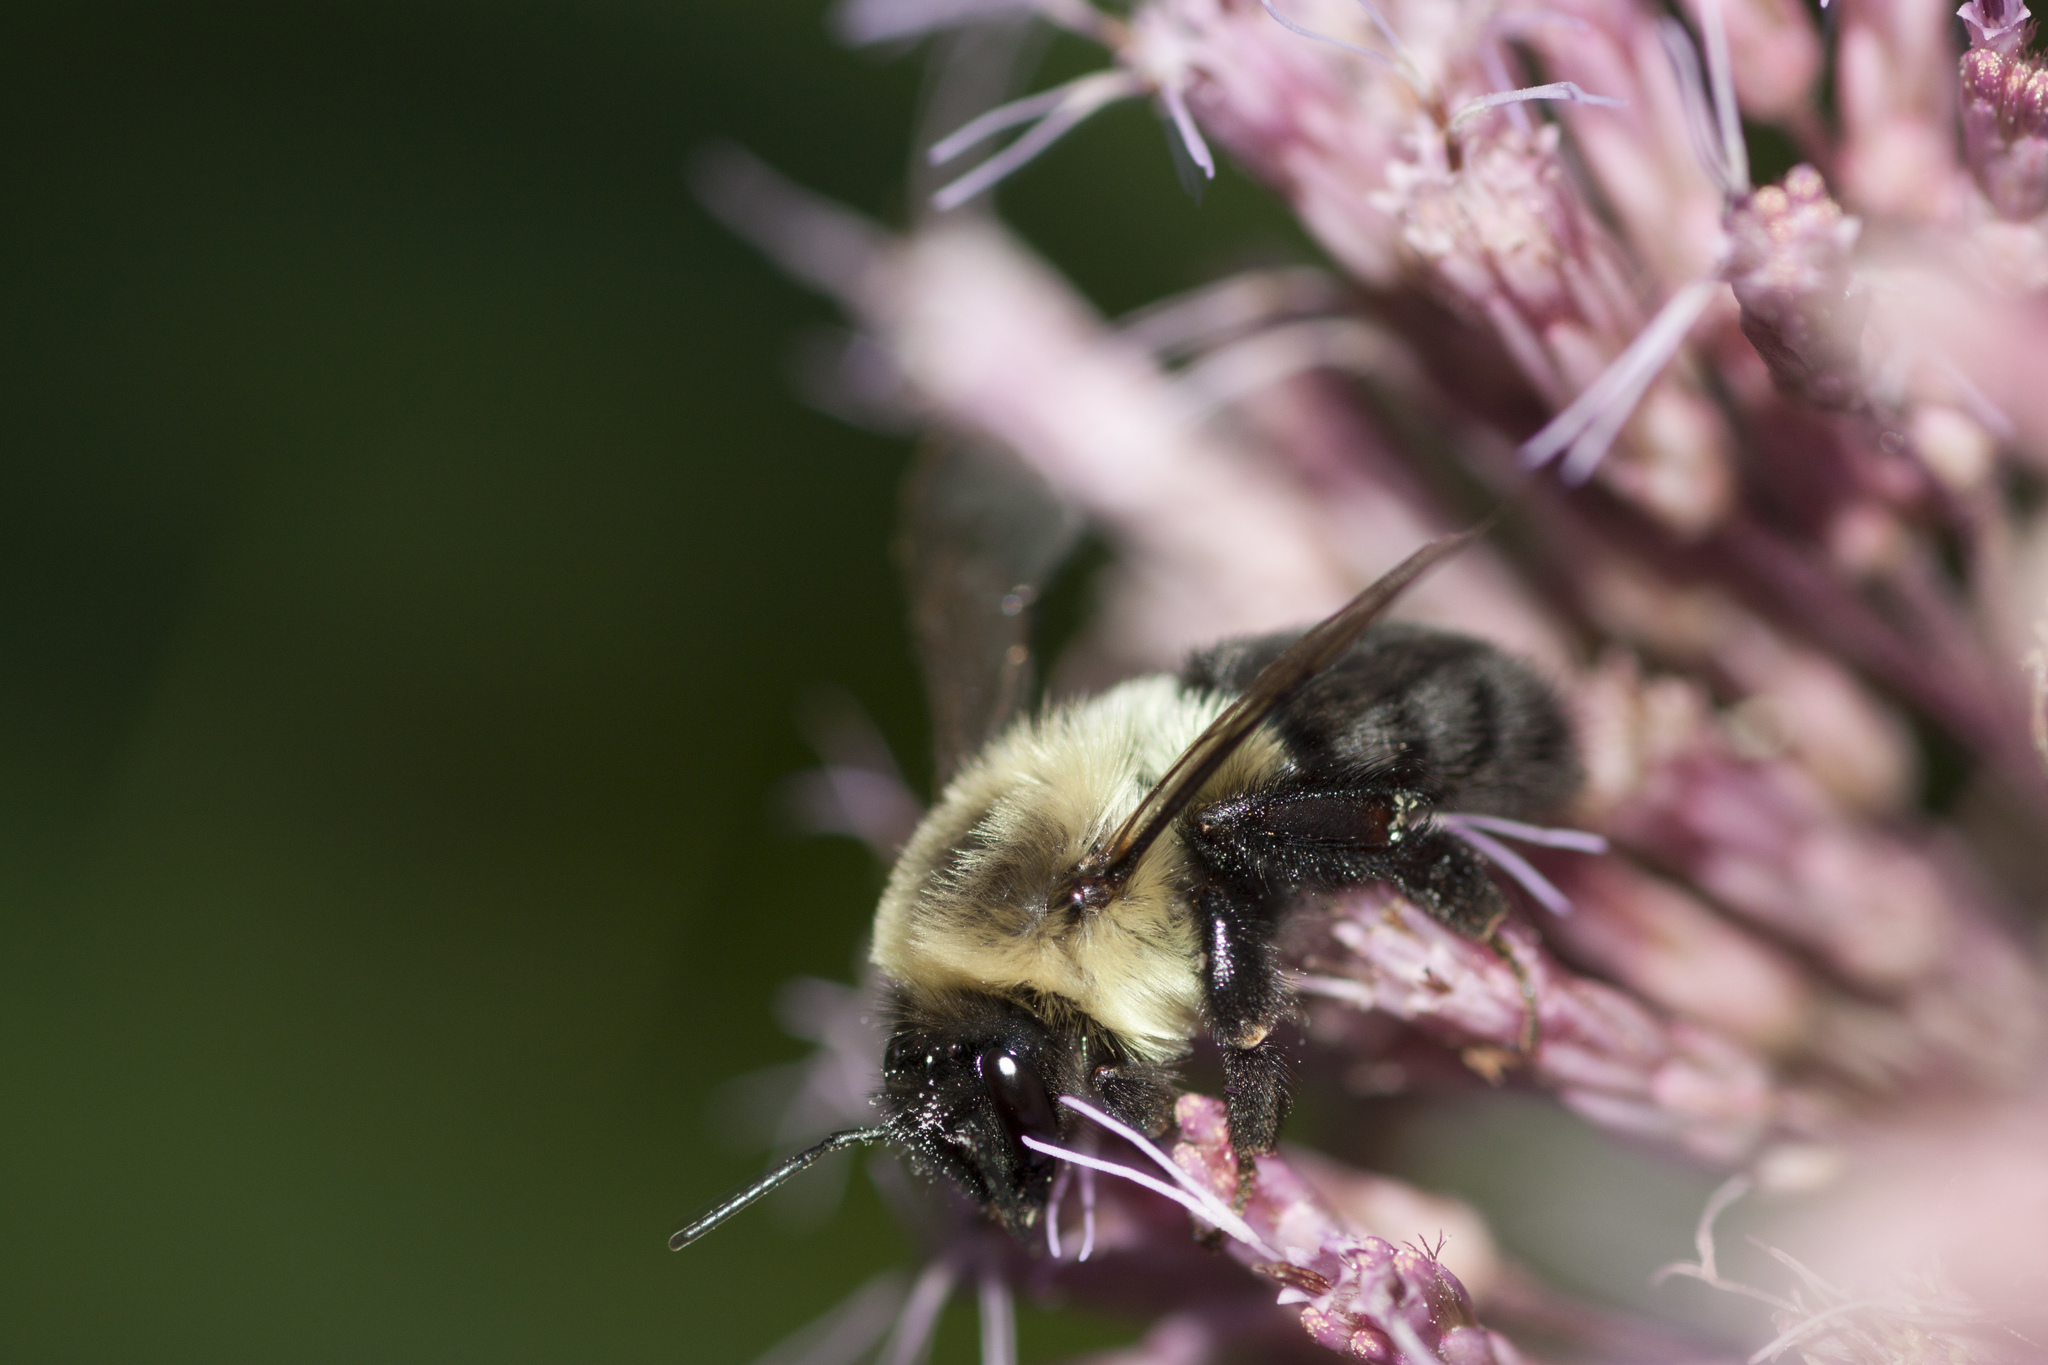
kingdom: Animalia
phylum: Arthropoda
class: Insecta
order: Hymenoptera
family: Apidae
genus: Bombus
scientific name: Bombus impatiens
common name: Common eastern bumble bee
